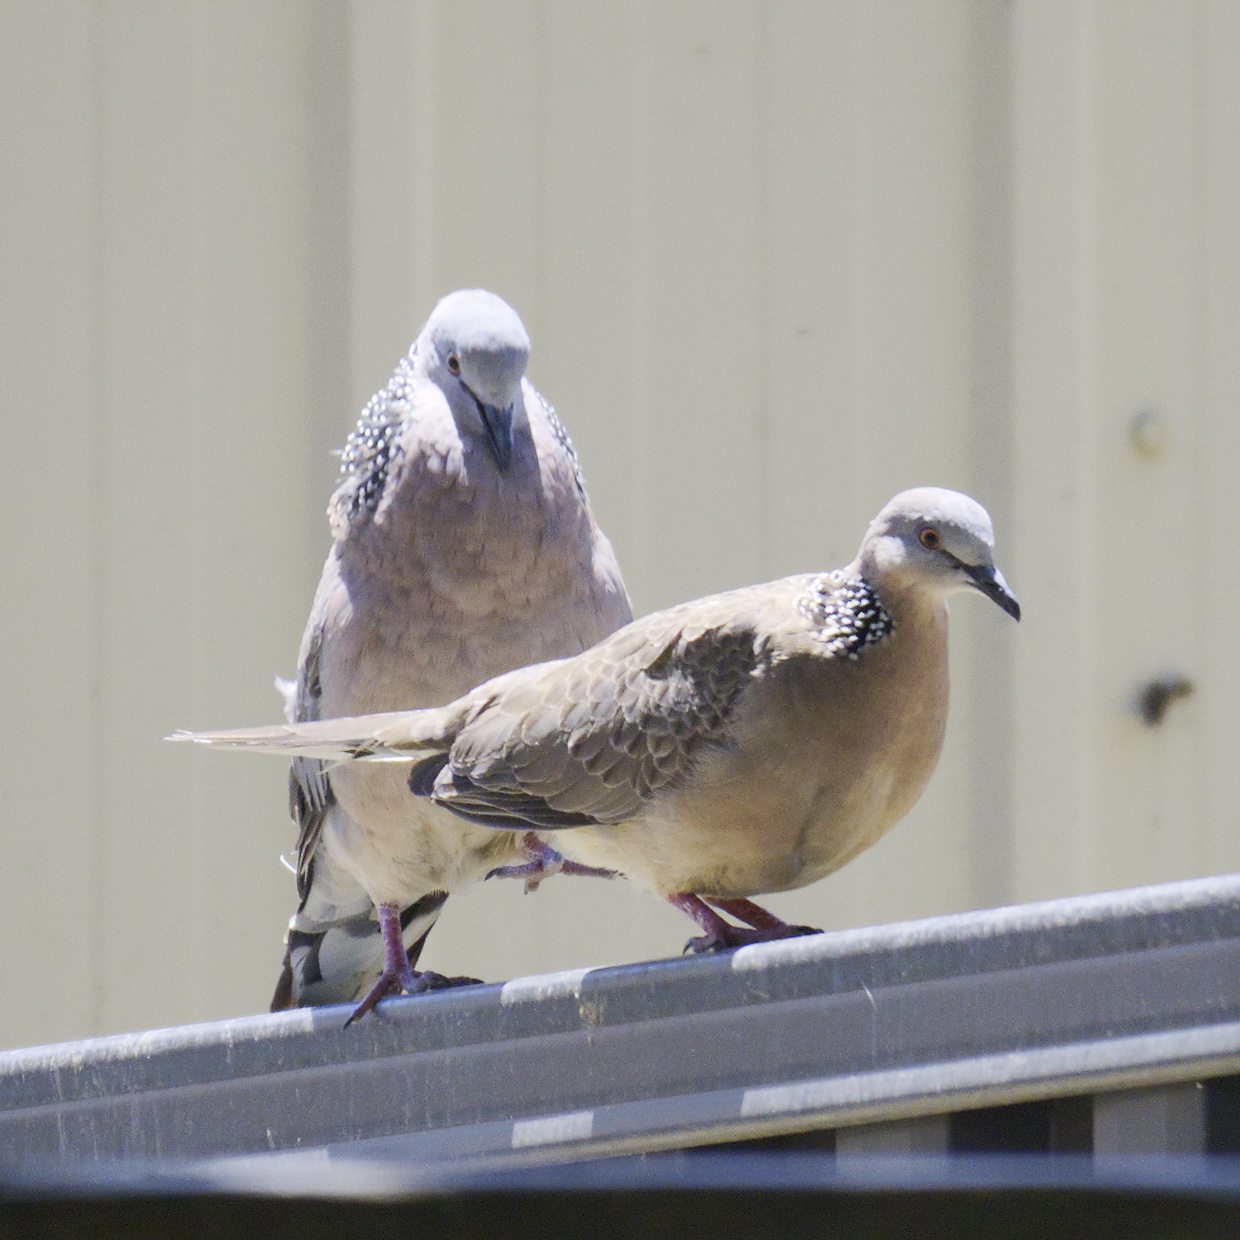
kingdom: Animalia
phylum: Chordata
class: Aves
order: Columbiformes
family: Columbidae
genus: Spilopelia
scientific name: Spilopelia chinensis
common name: Spotted dove
